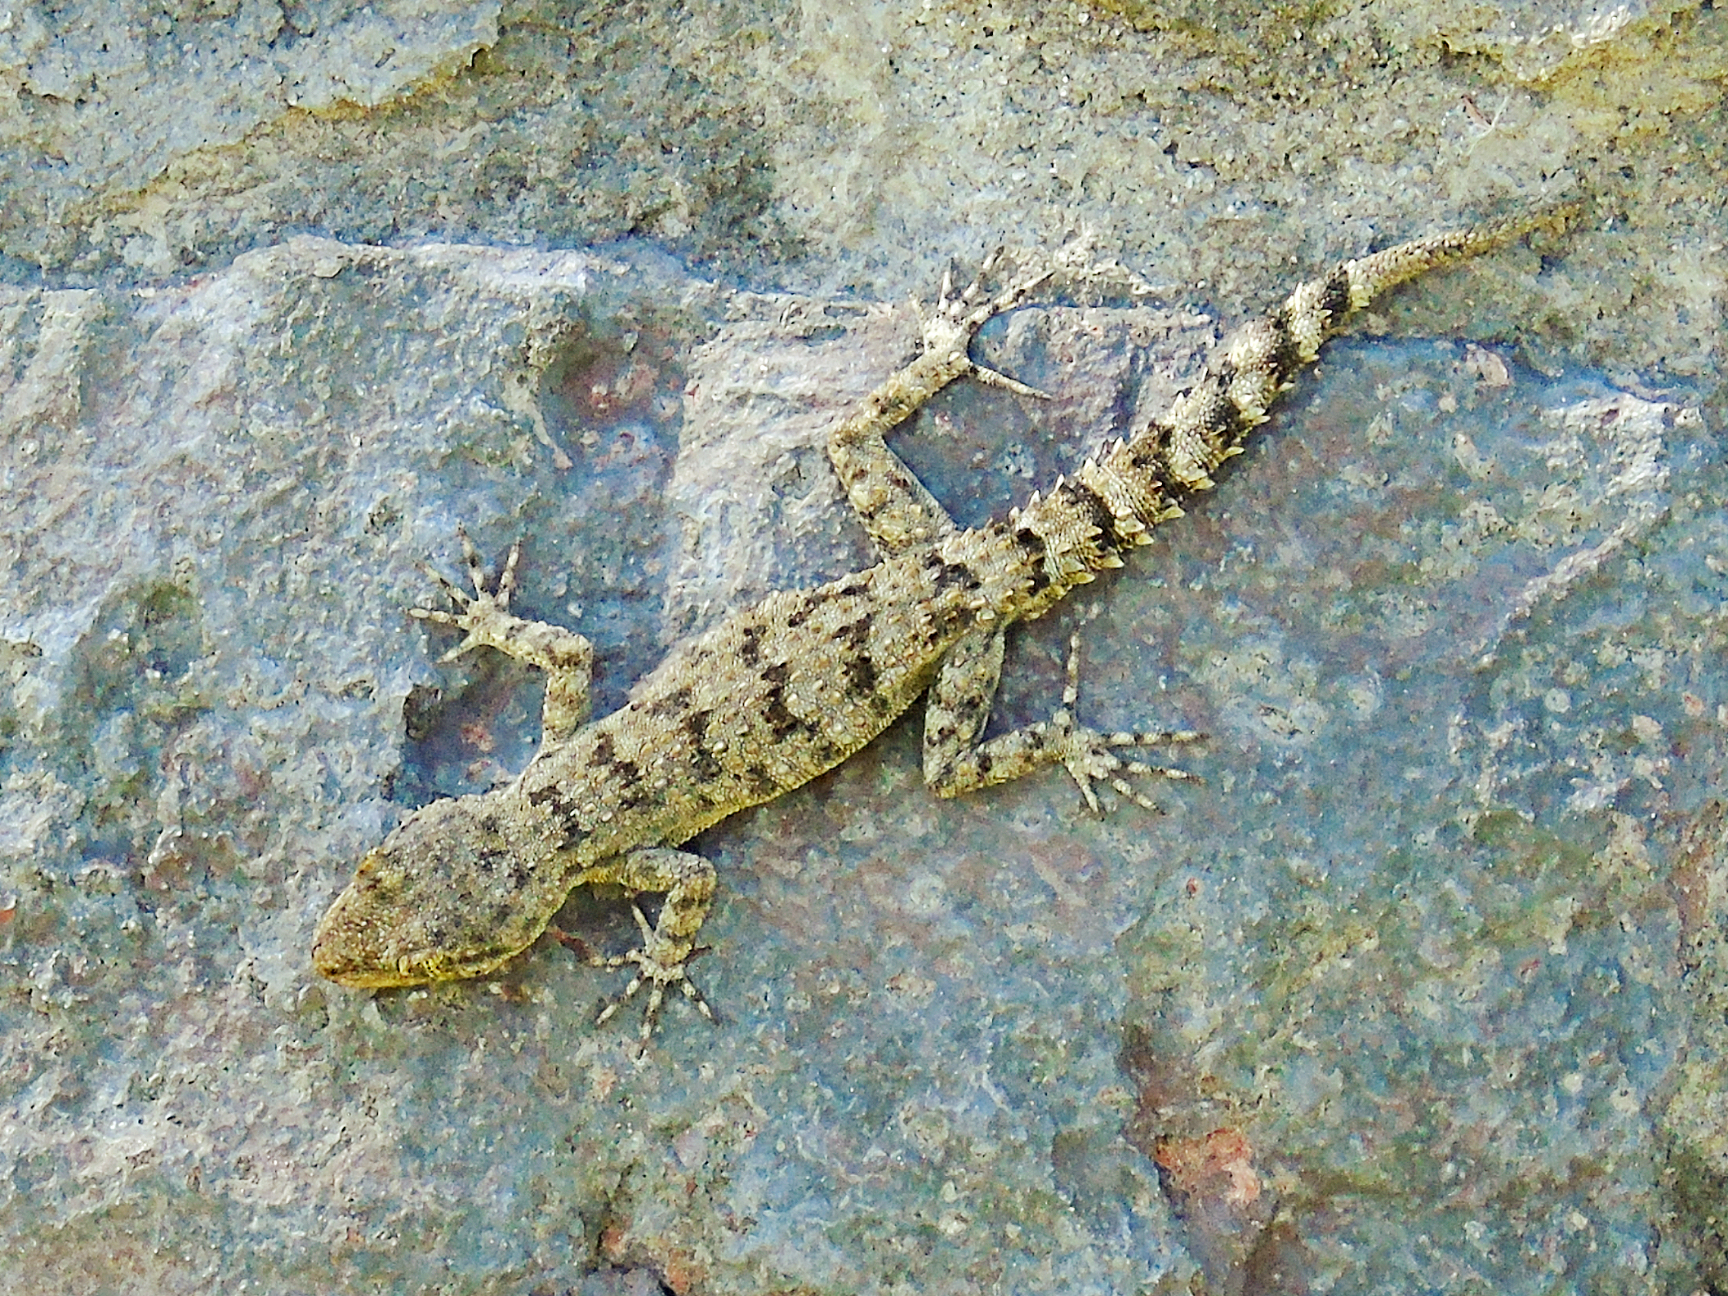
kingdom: Animalia
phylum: Chordata
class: Squamata
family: Gekkonidae
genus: Mediodactylus
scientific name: Mediodactylus kotschyi
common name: Kotschy's gecko
